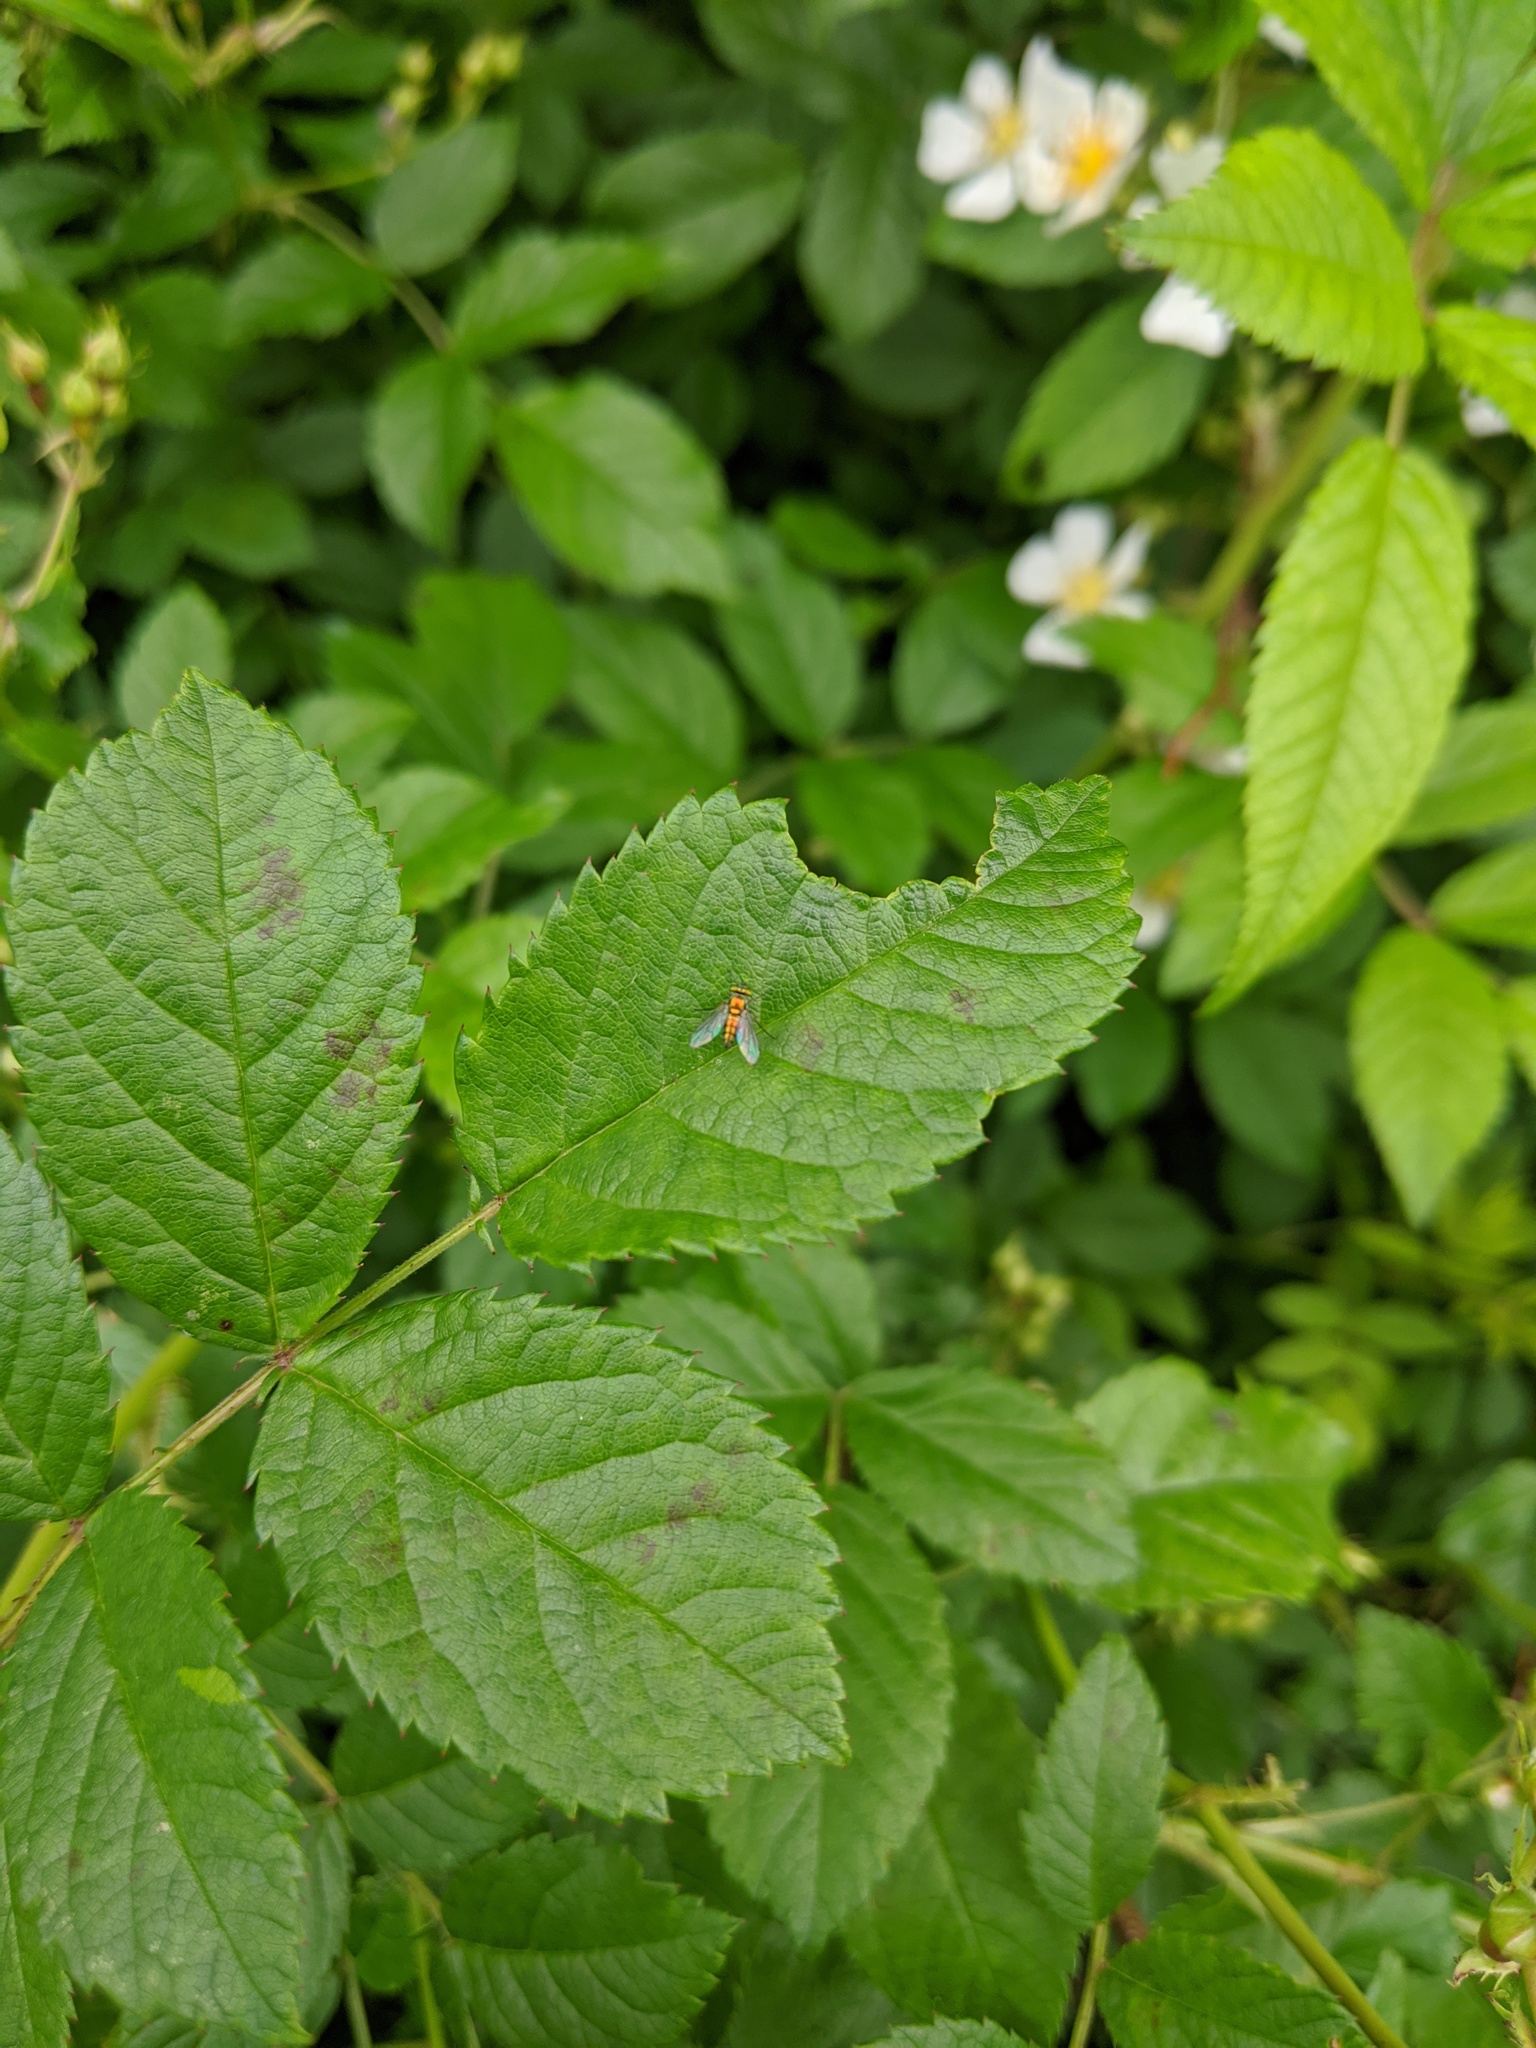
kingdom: Plantae
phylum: Tracheophyta
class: Magnoliopsida
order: Rosales
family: Rosaceae
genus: Rosa
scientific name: Rosa multiflora
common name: Multiflora rose
